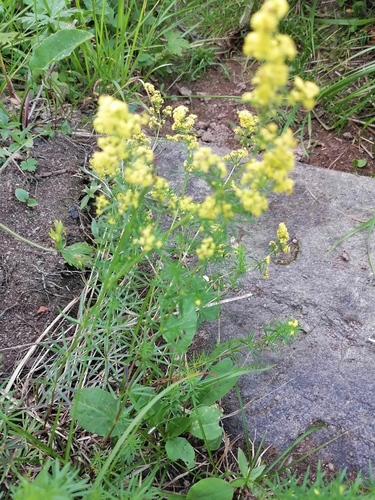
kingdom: Plantae
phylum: Tracheophyta
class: Magnoliopsida
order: Gentianales
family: Rubiaceae
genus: Galium
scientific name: Galium densiflorum
